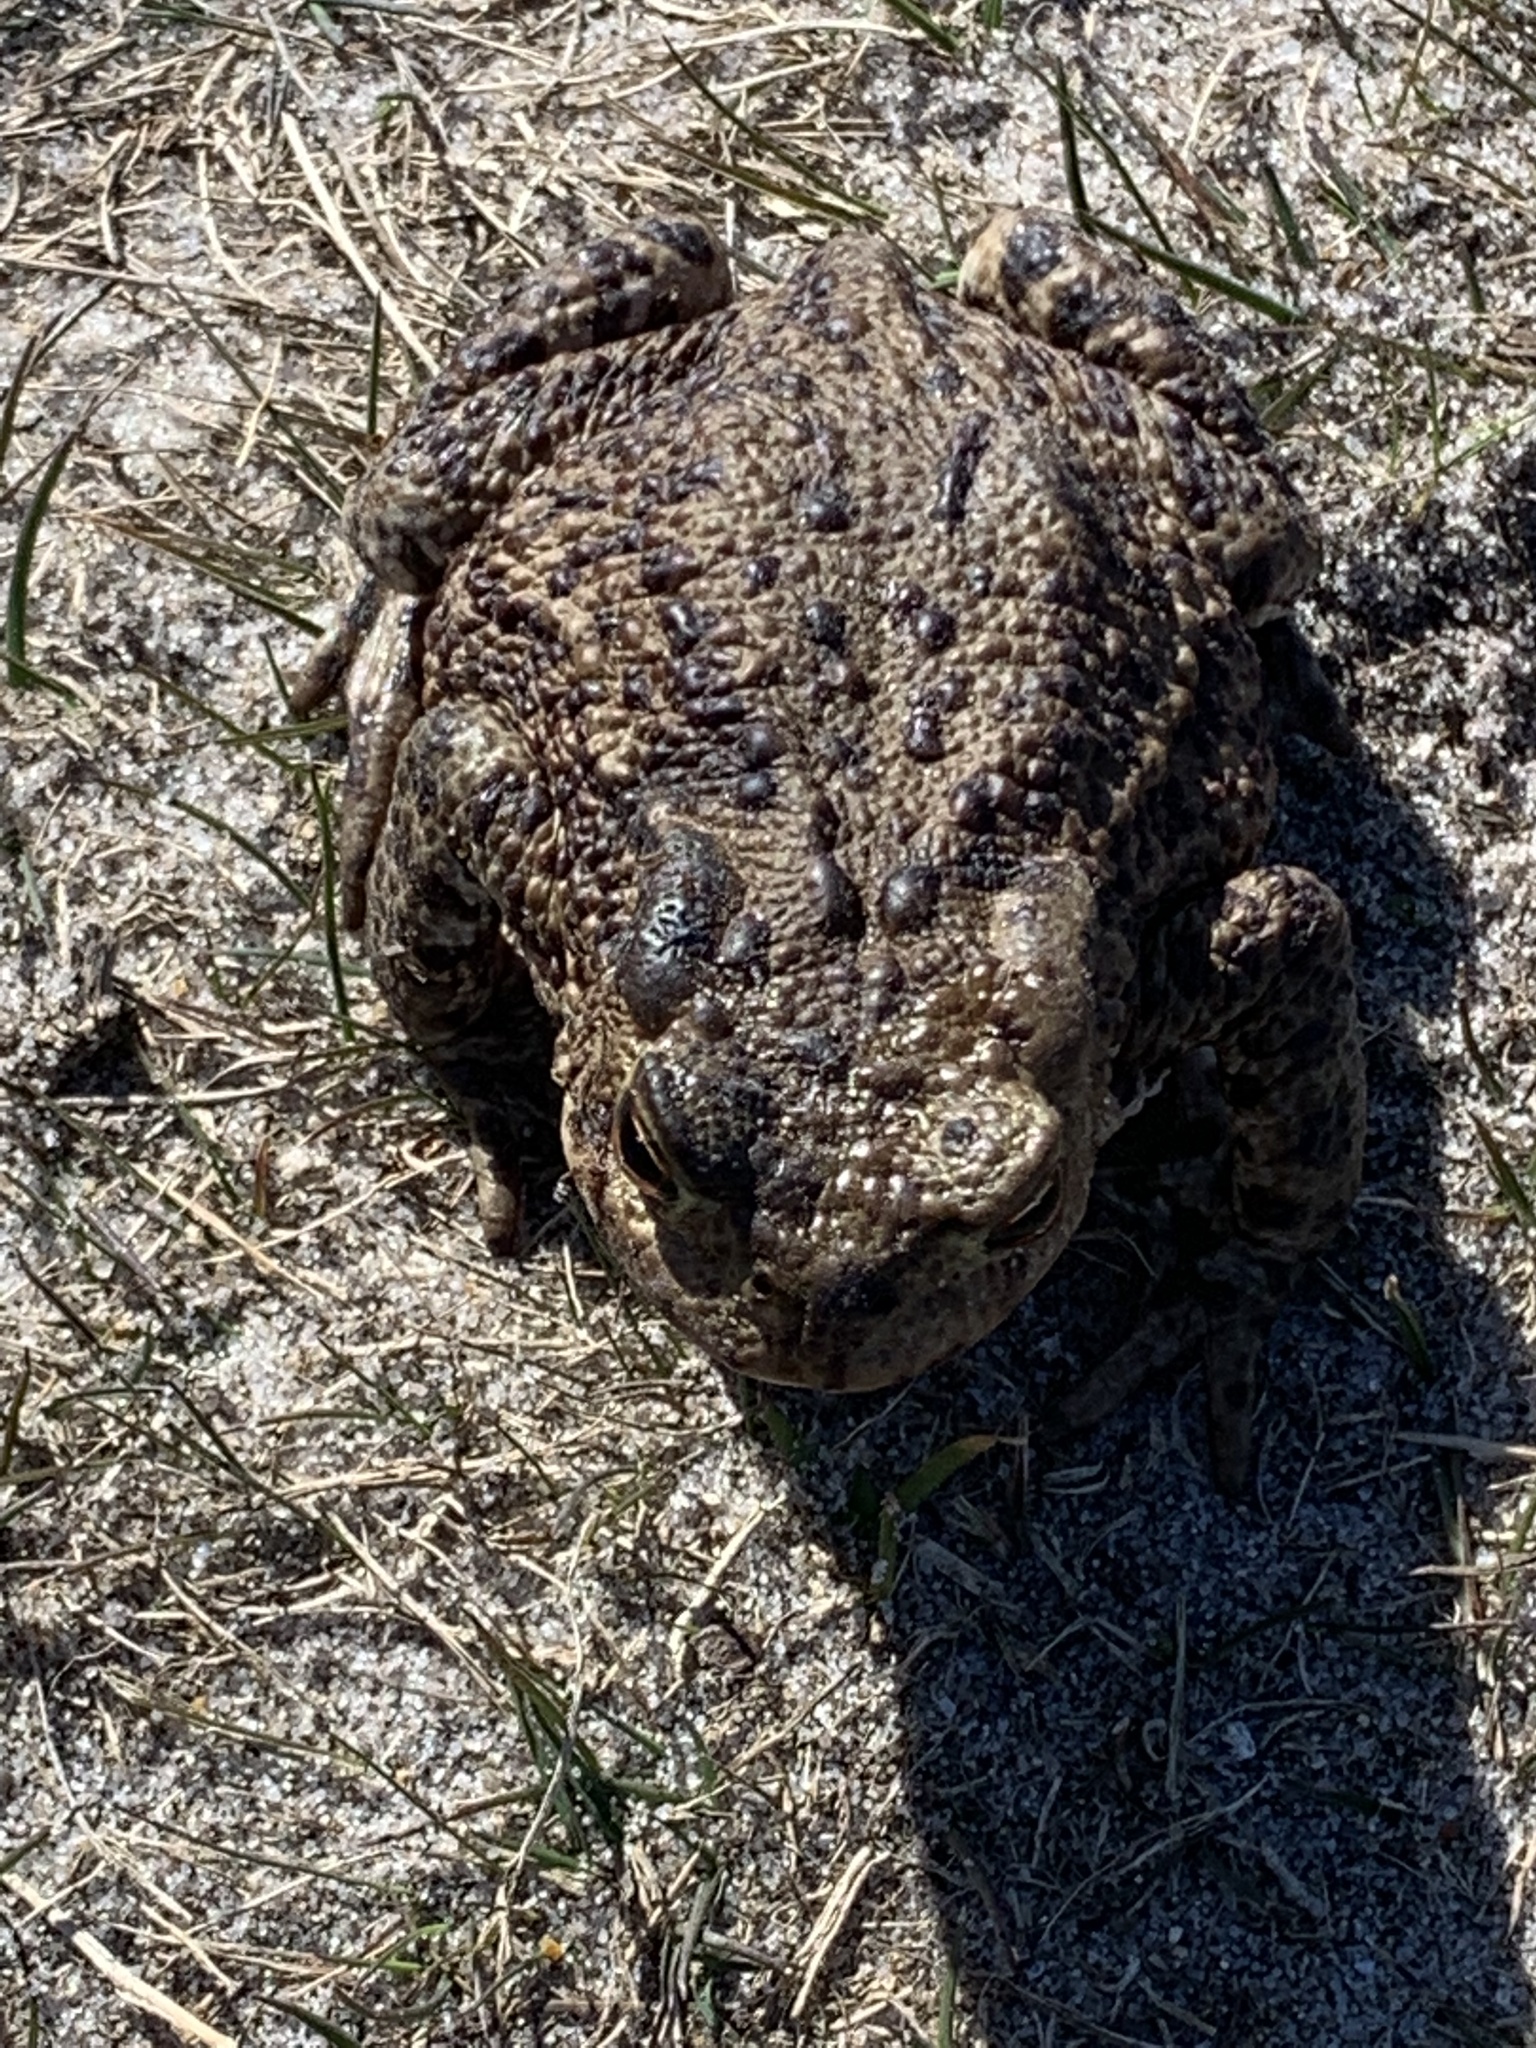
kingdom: Animalia
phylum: Chordata
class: Amphibia
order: Anura
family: Bufonidae
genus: Bufo
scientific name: Bufo bufo
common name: Common toad
